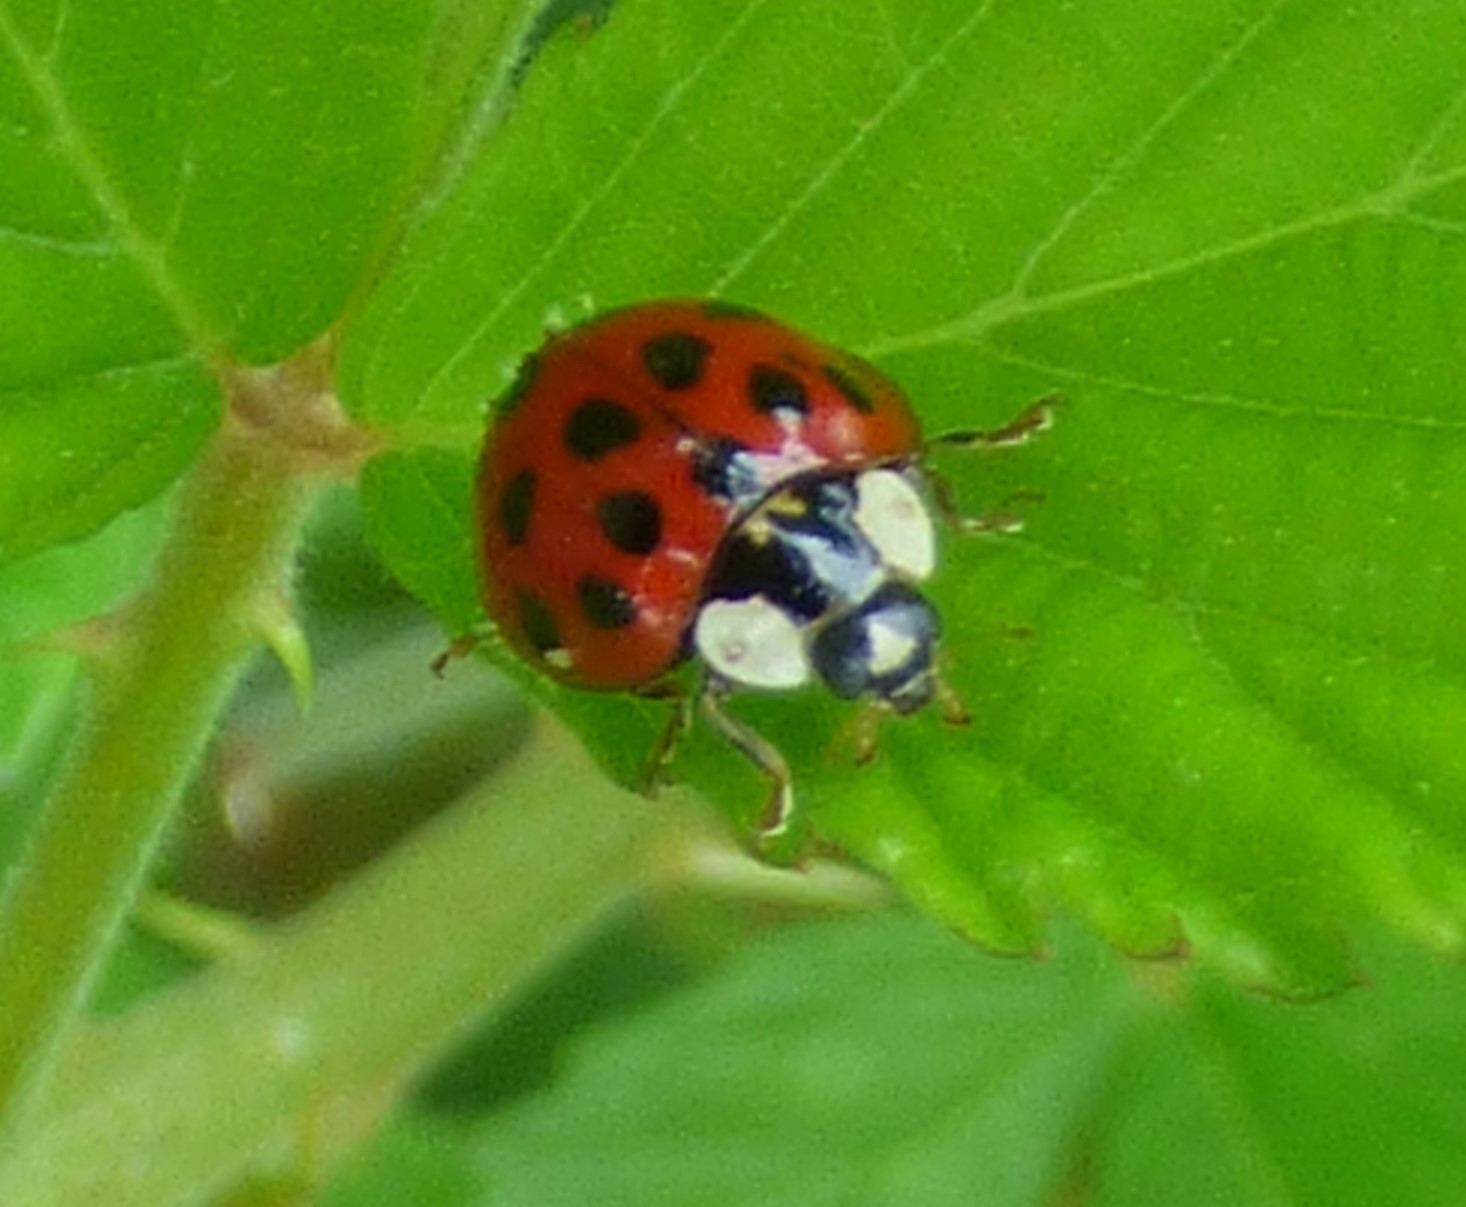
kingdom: Animalia
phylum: Arthropoda
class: Insecta
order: Coleoptera
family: Coccinellidae
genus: Harmonia
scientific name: Harmonia axyridis
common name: Harlequin ladybird
